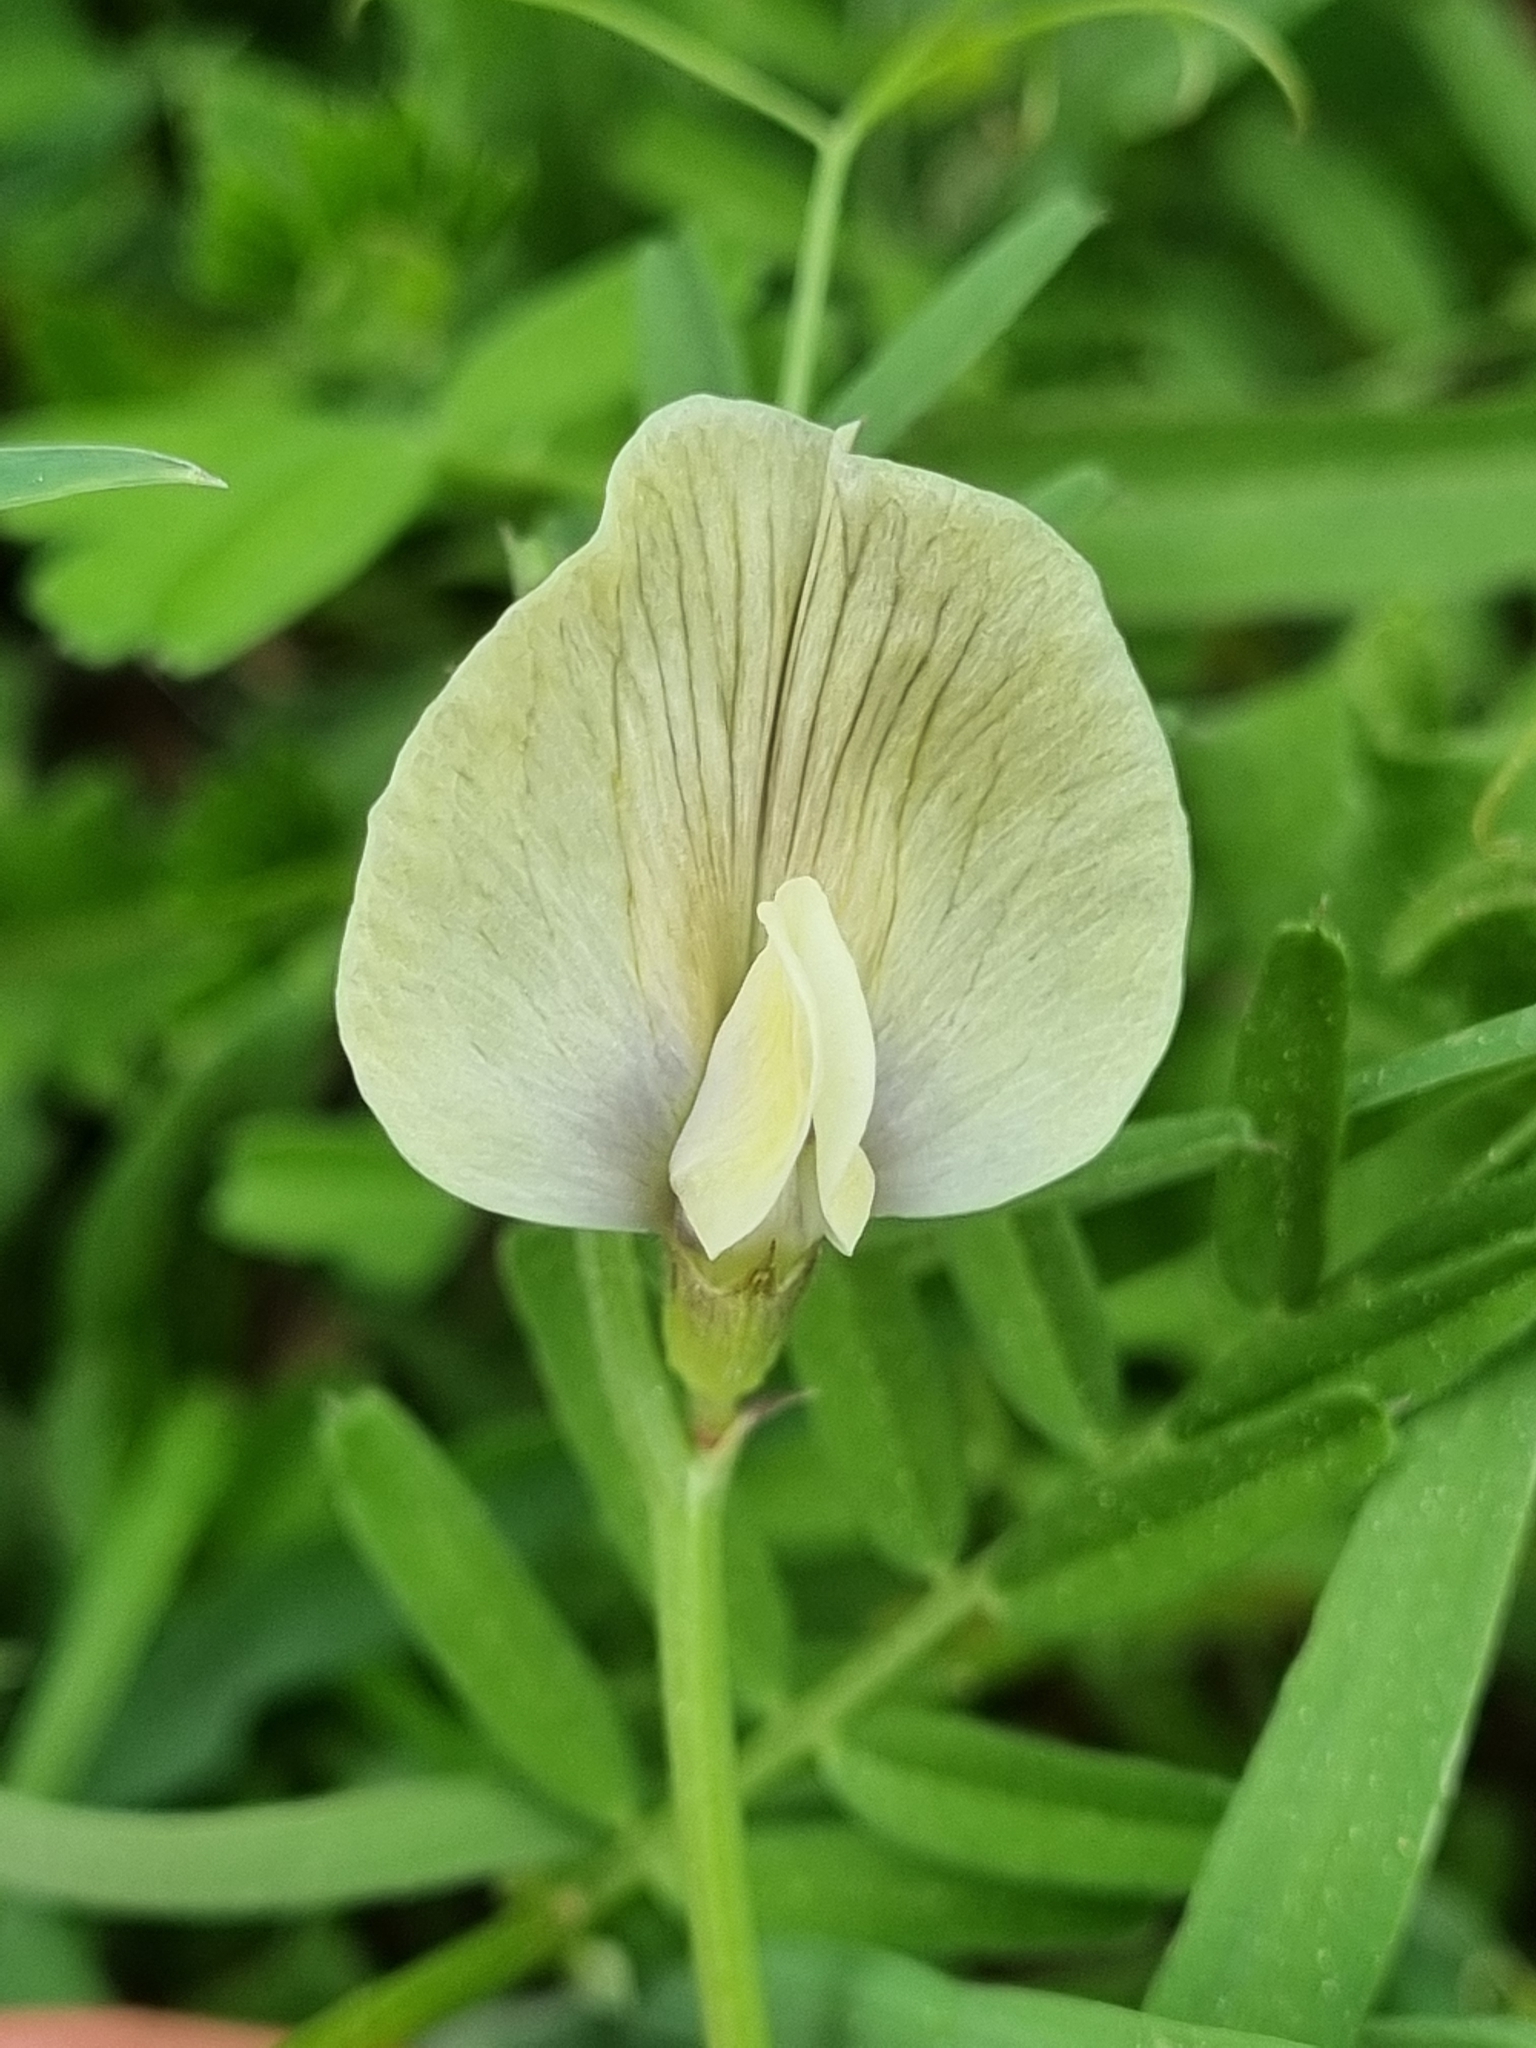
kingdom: Plantae
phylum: Tracheophyta
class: Magnoliopsida
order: Fabales
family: Fabaceae
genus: Vicia
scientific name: Vicia grandiflora
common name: Large yellow vetch
